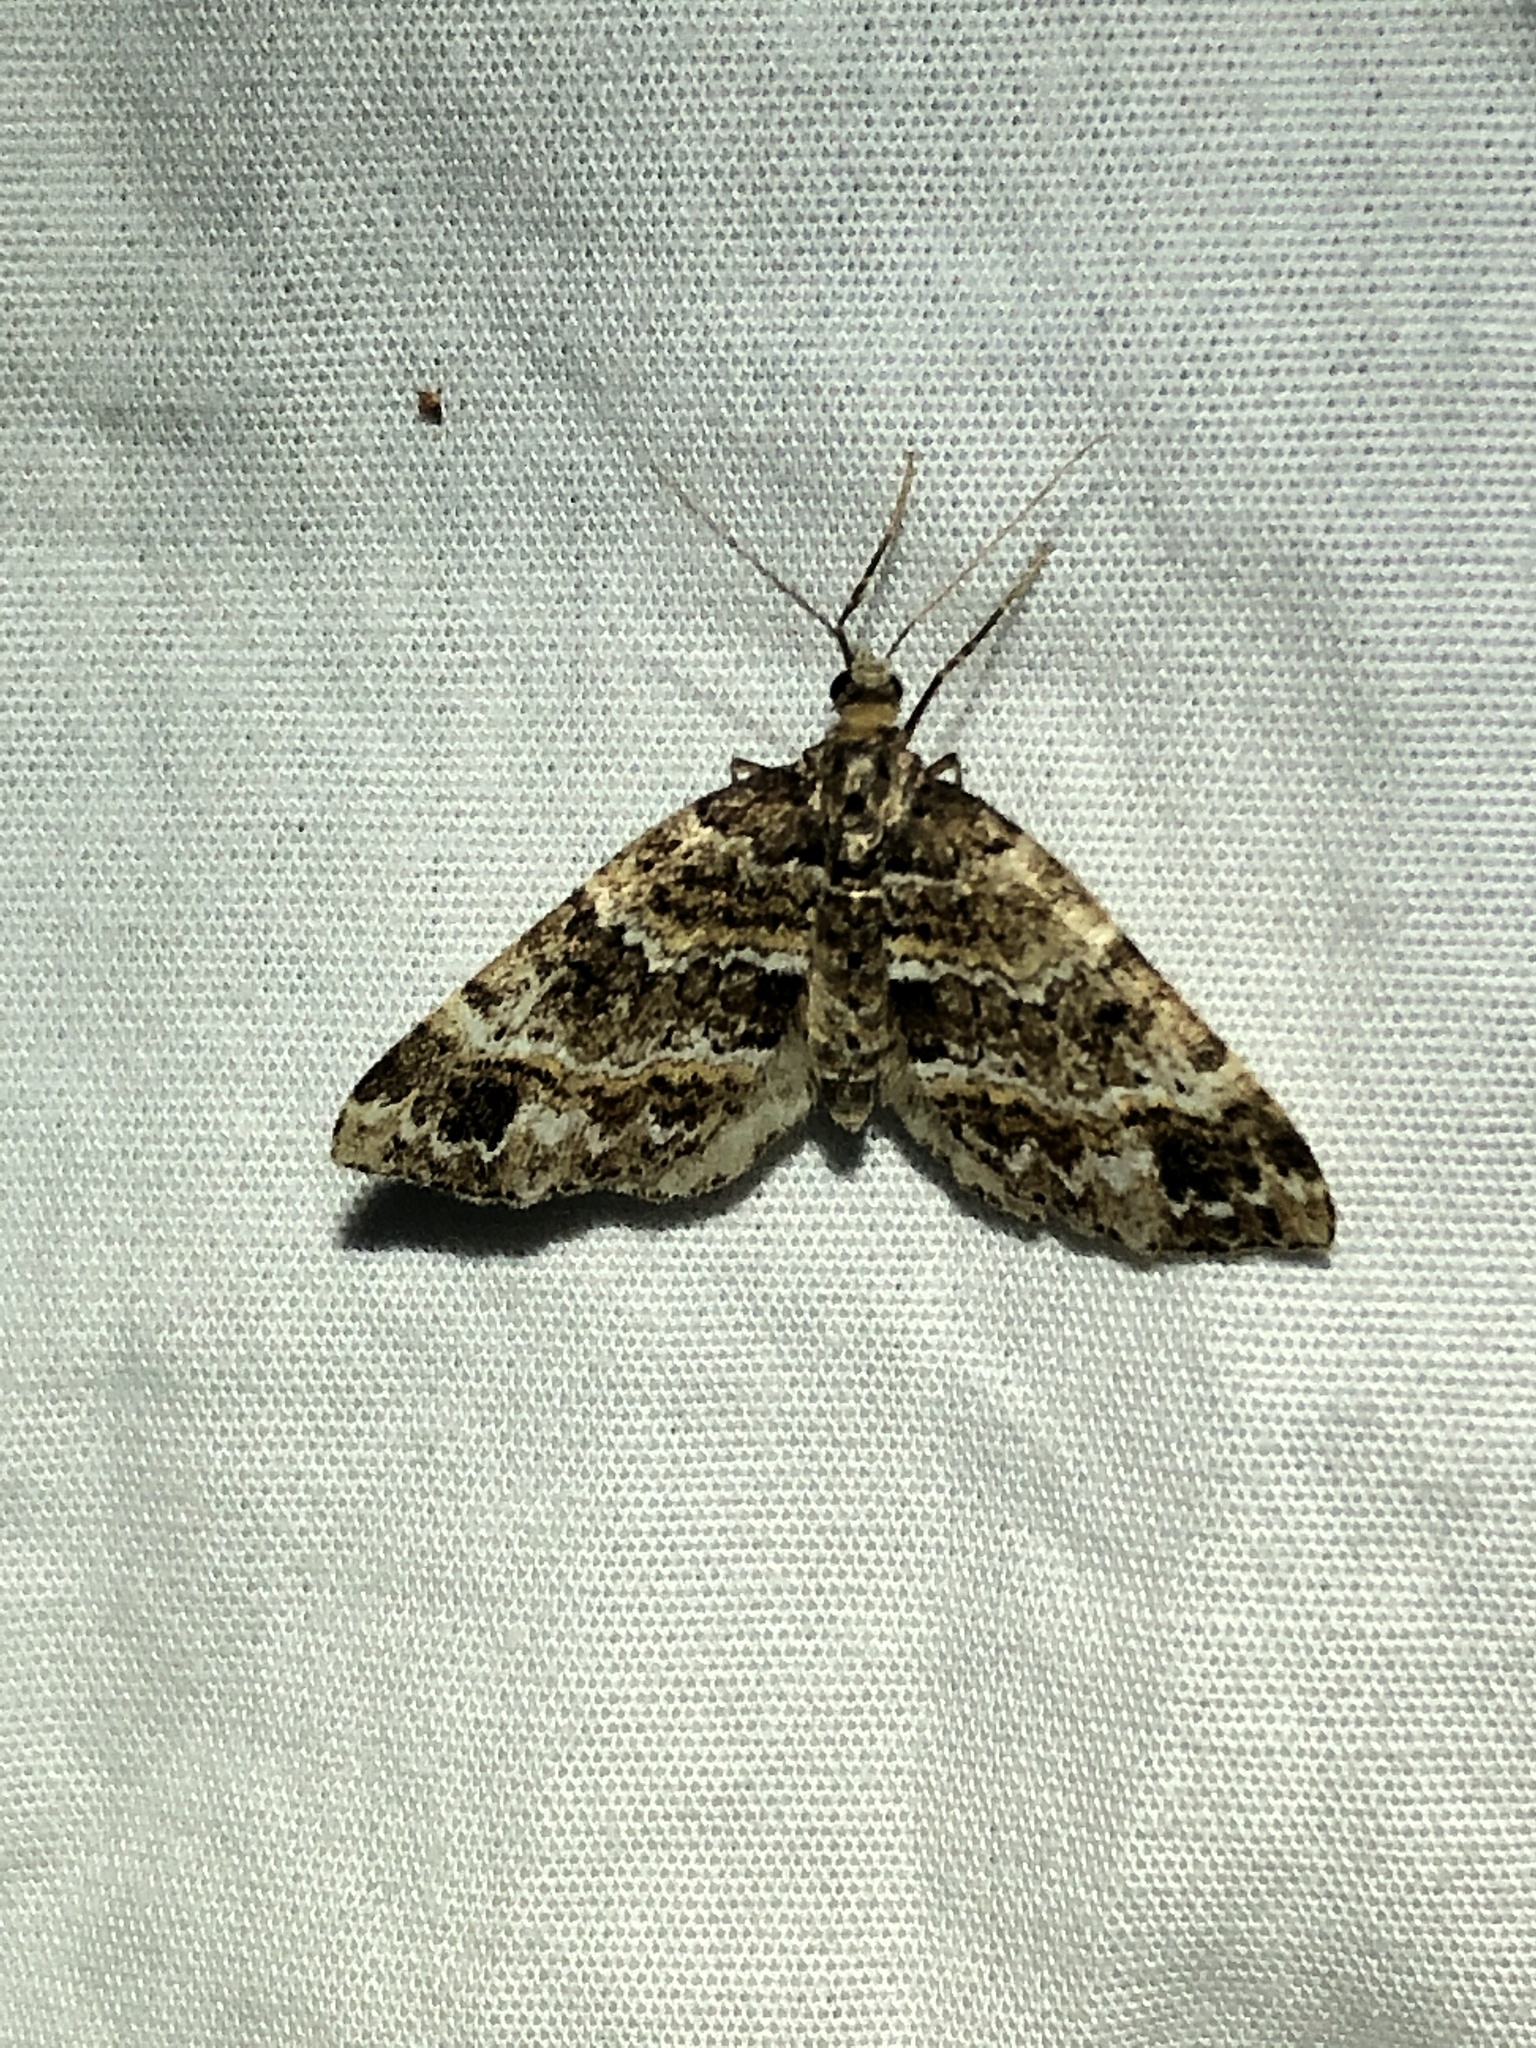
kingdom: Animalia
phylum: Arthropoda
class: Insecta
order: Lepidoptera
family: Geometridae
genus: Martania
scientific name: Martania
